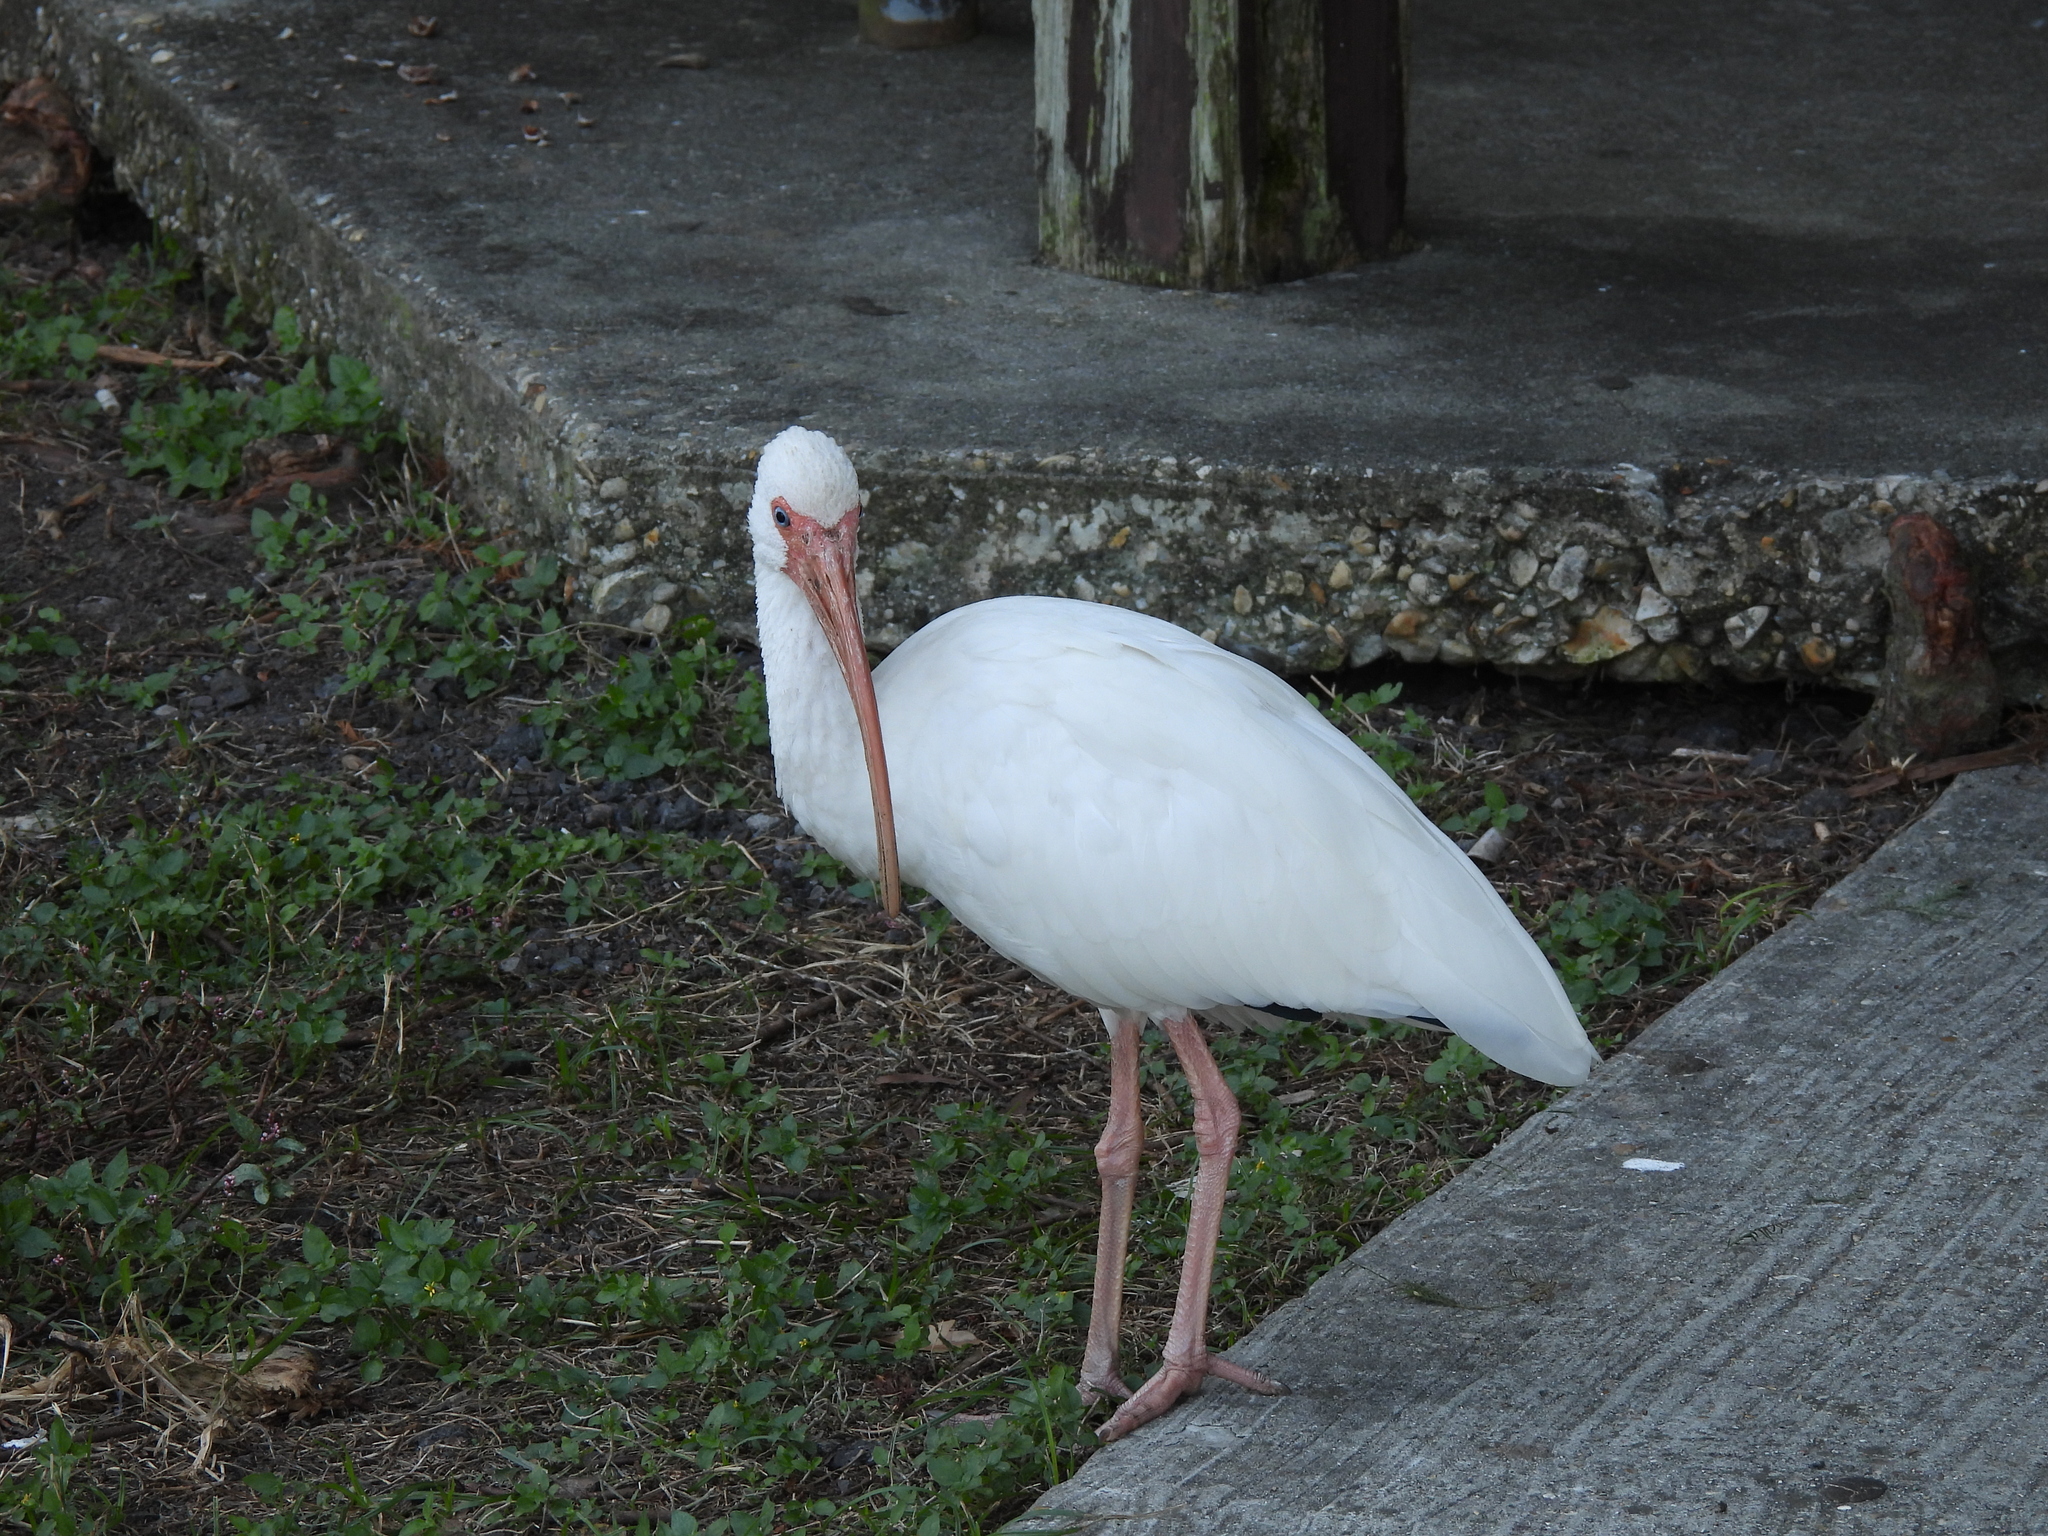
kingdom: Animalia
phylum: Chordata
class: Aves
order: Pelecaniformes
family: Threskiornithidae
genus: Eudocimus
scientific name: Eudocimus albus
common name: White ibis
